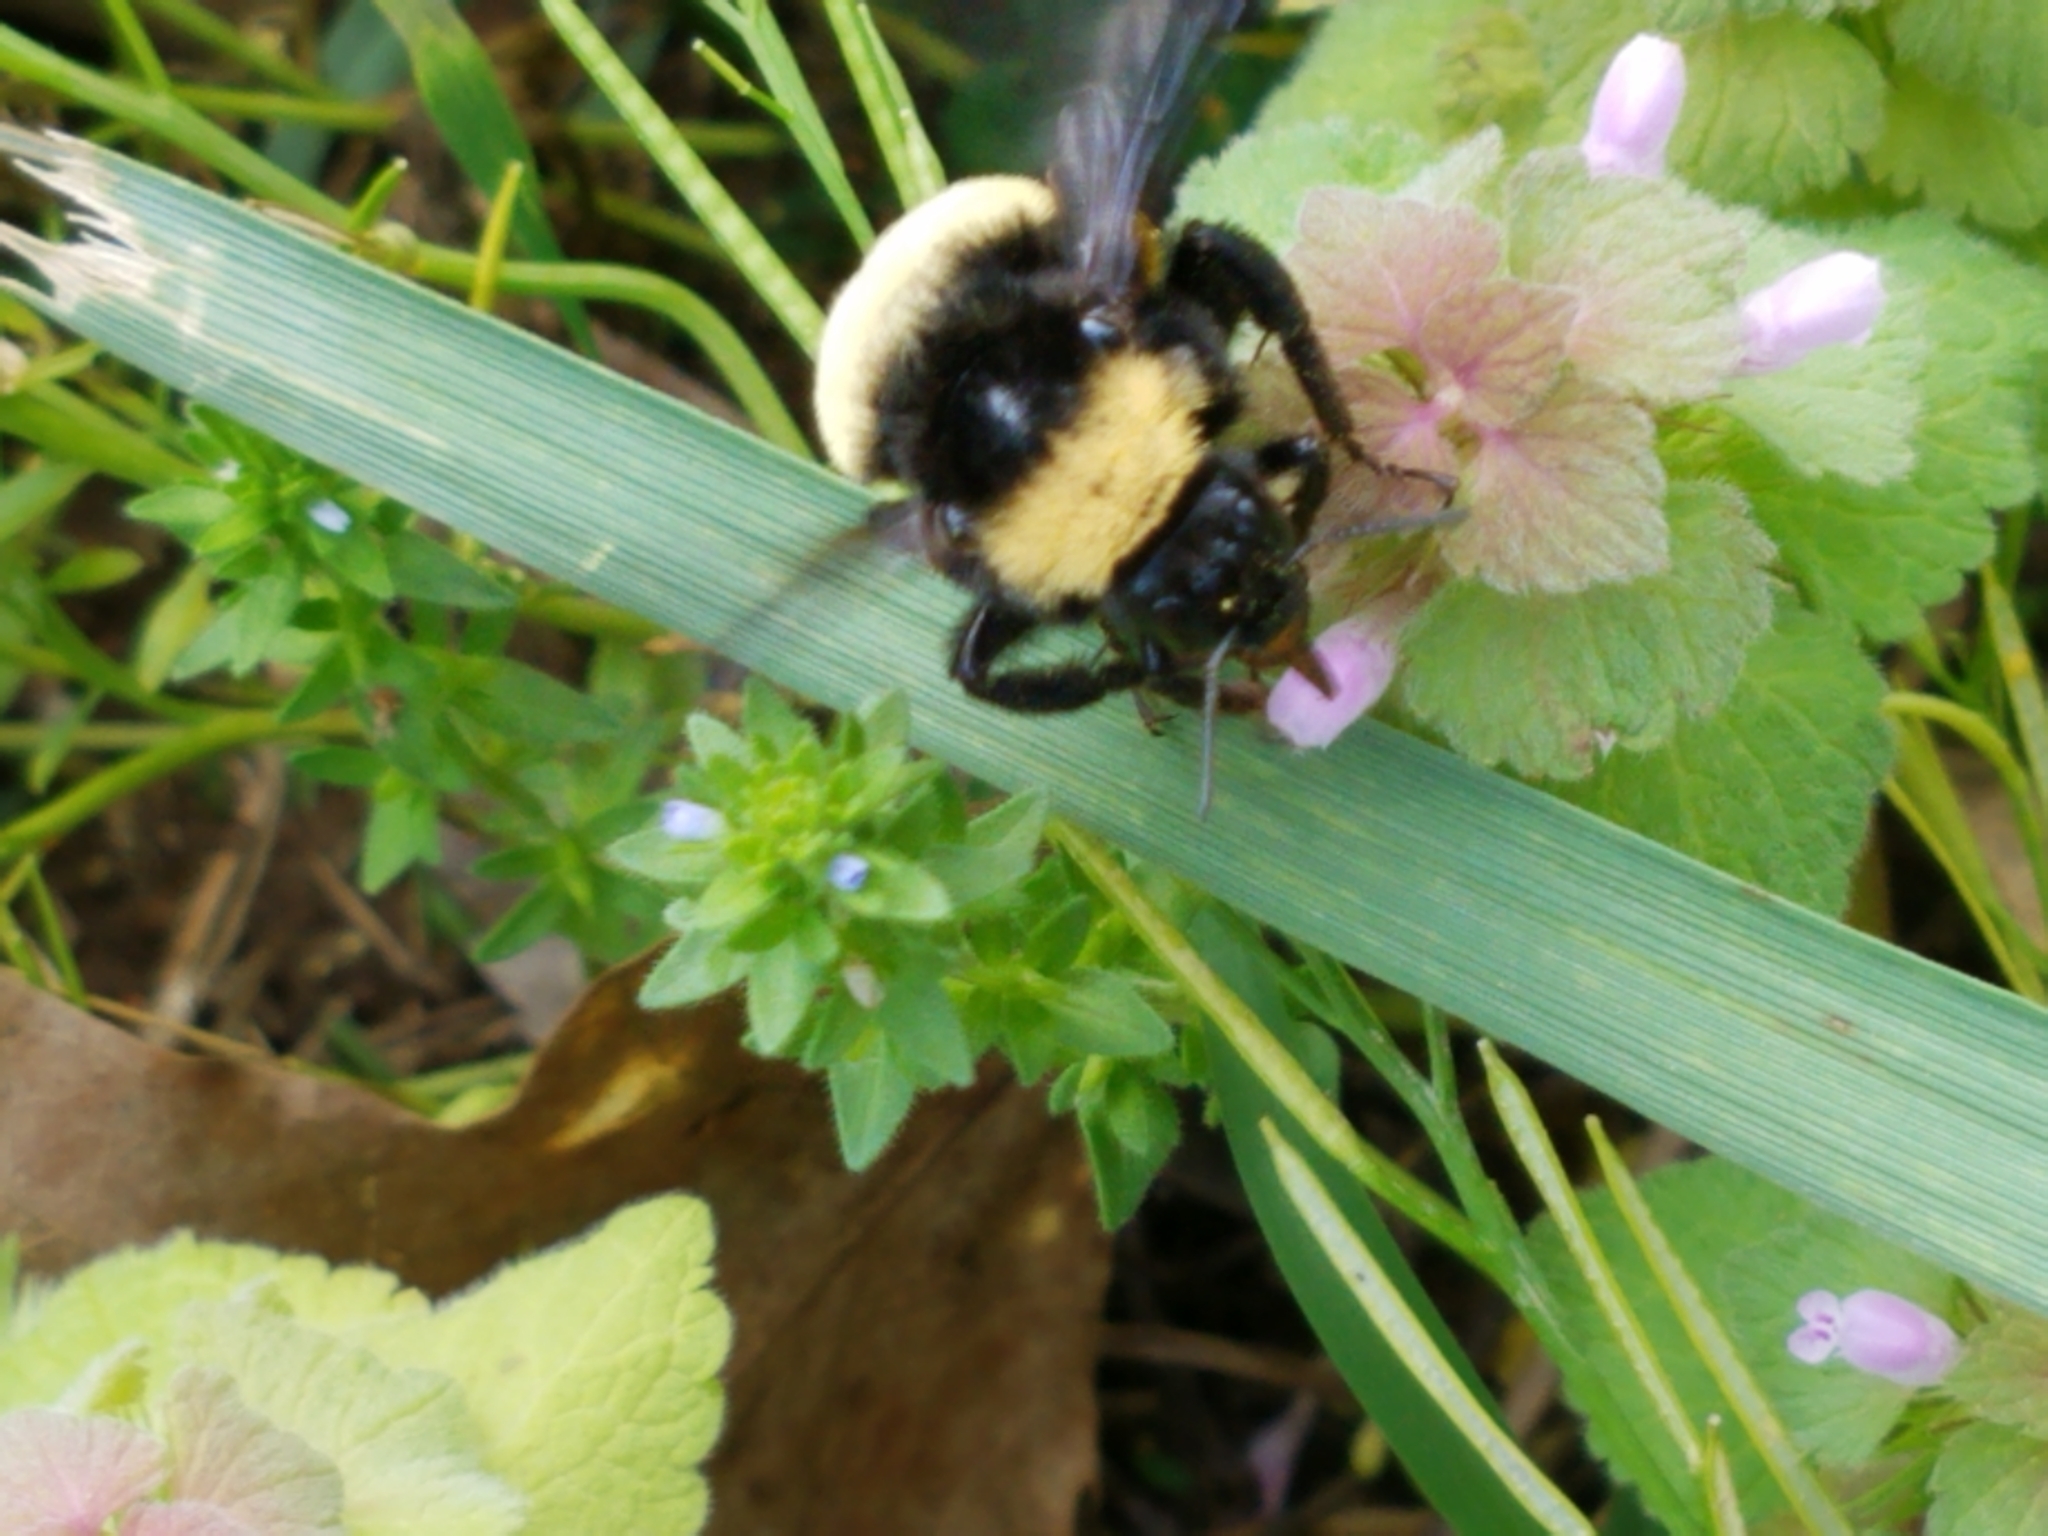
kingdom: Animalia
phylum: Arthropoda
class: Insecta
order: Hymenoptera
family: Apidae
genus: Bombus
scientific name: Bombus pensylvanicus
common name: Bumble bee
